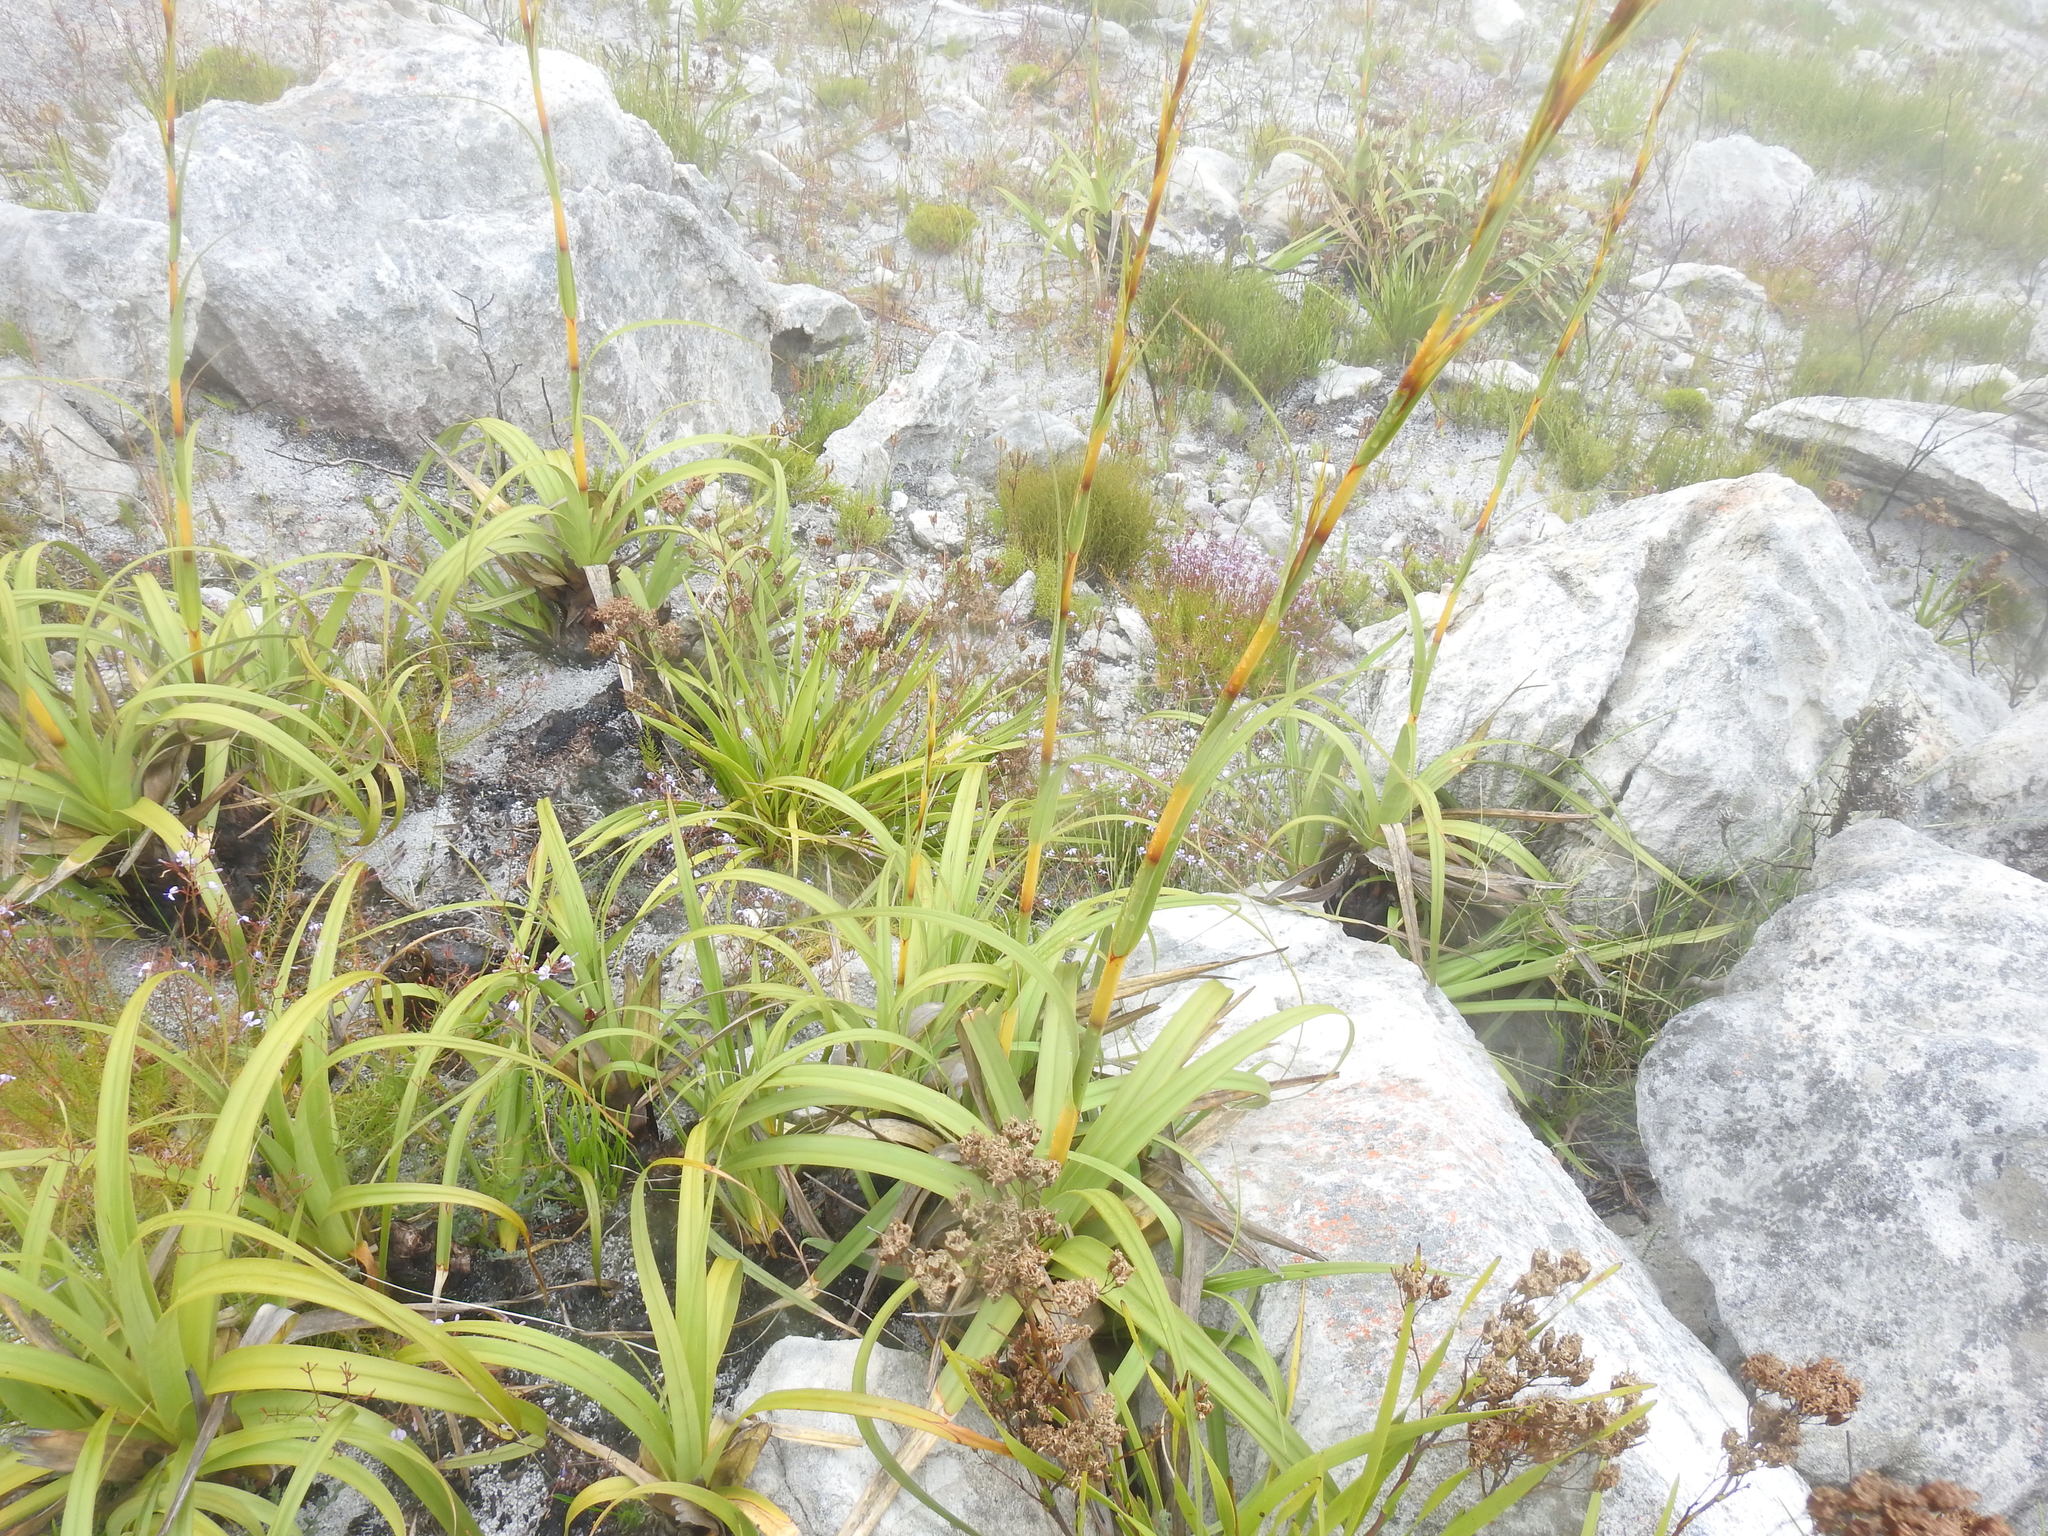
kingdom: Plantae
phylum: Tracheophyta
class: Liliopsida
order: Poales
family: Cyperaceae
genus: Tetraria
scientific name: Tetraria thermalis
